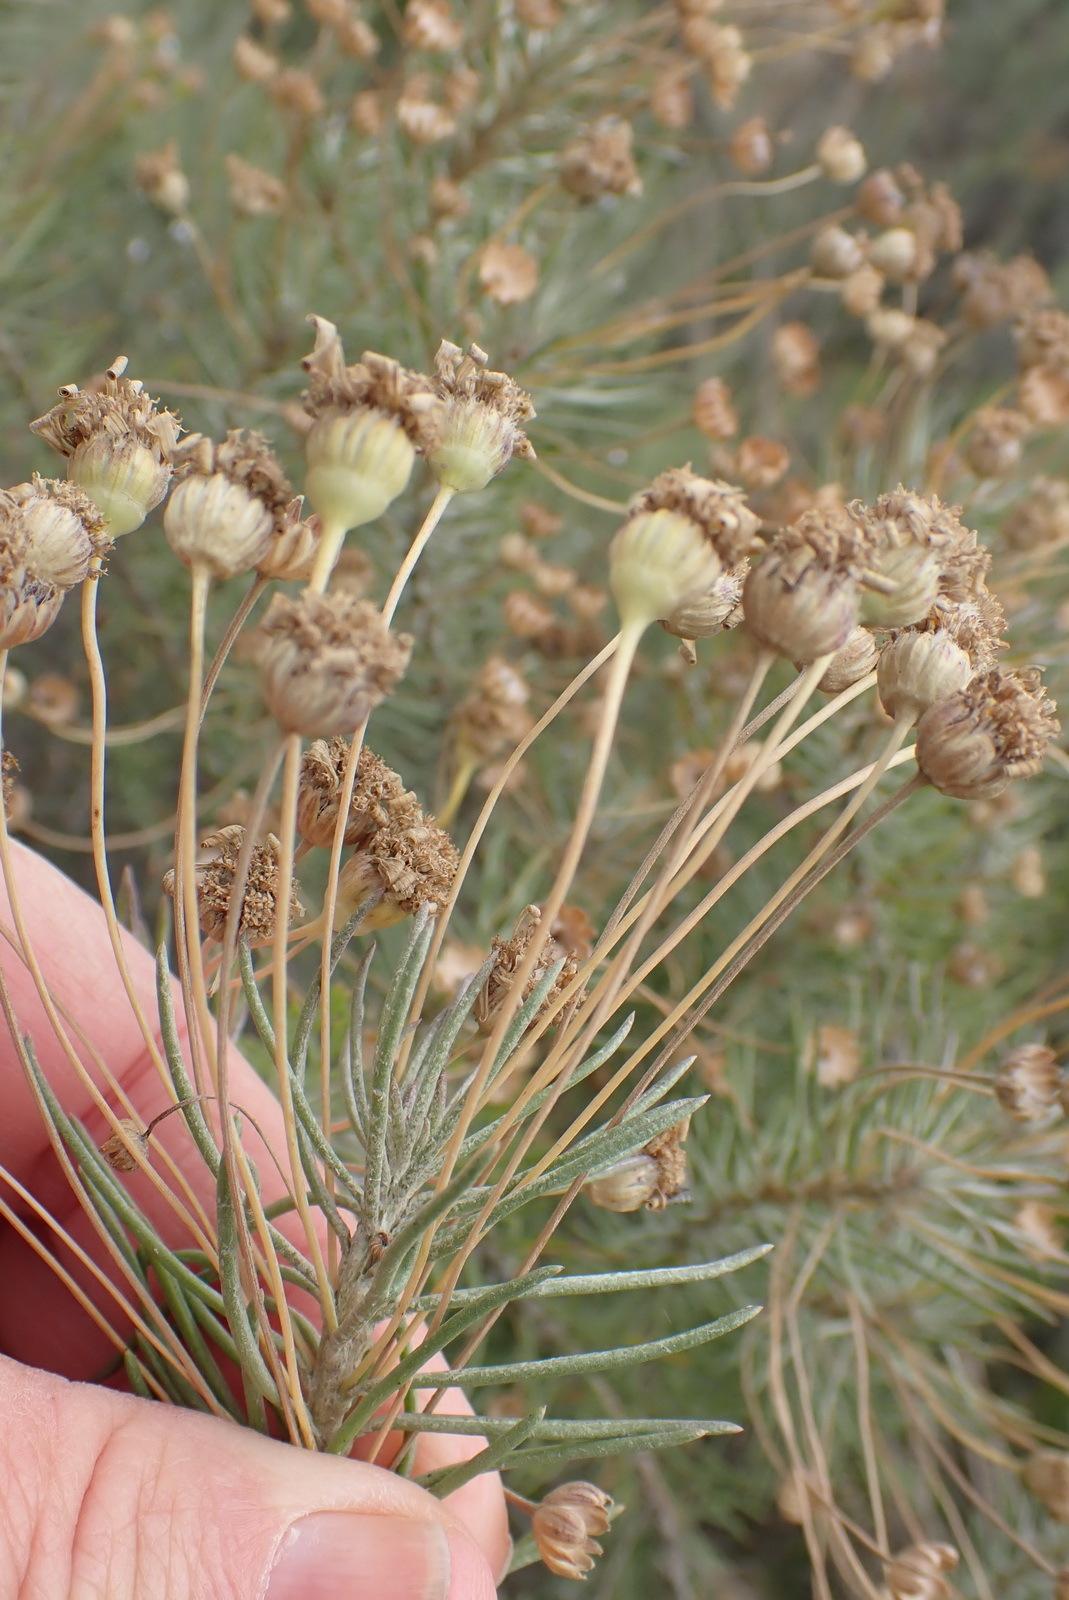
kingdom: Plantae
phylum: Tracheophyta
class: Magnoliopsida
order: Asterales
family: Asteraceae
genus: Euryops
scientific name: Euryops rehmannii
